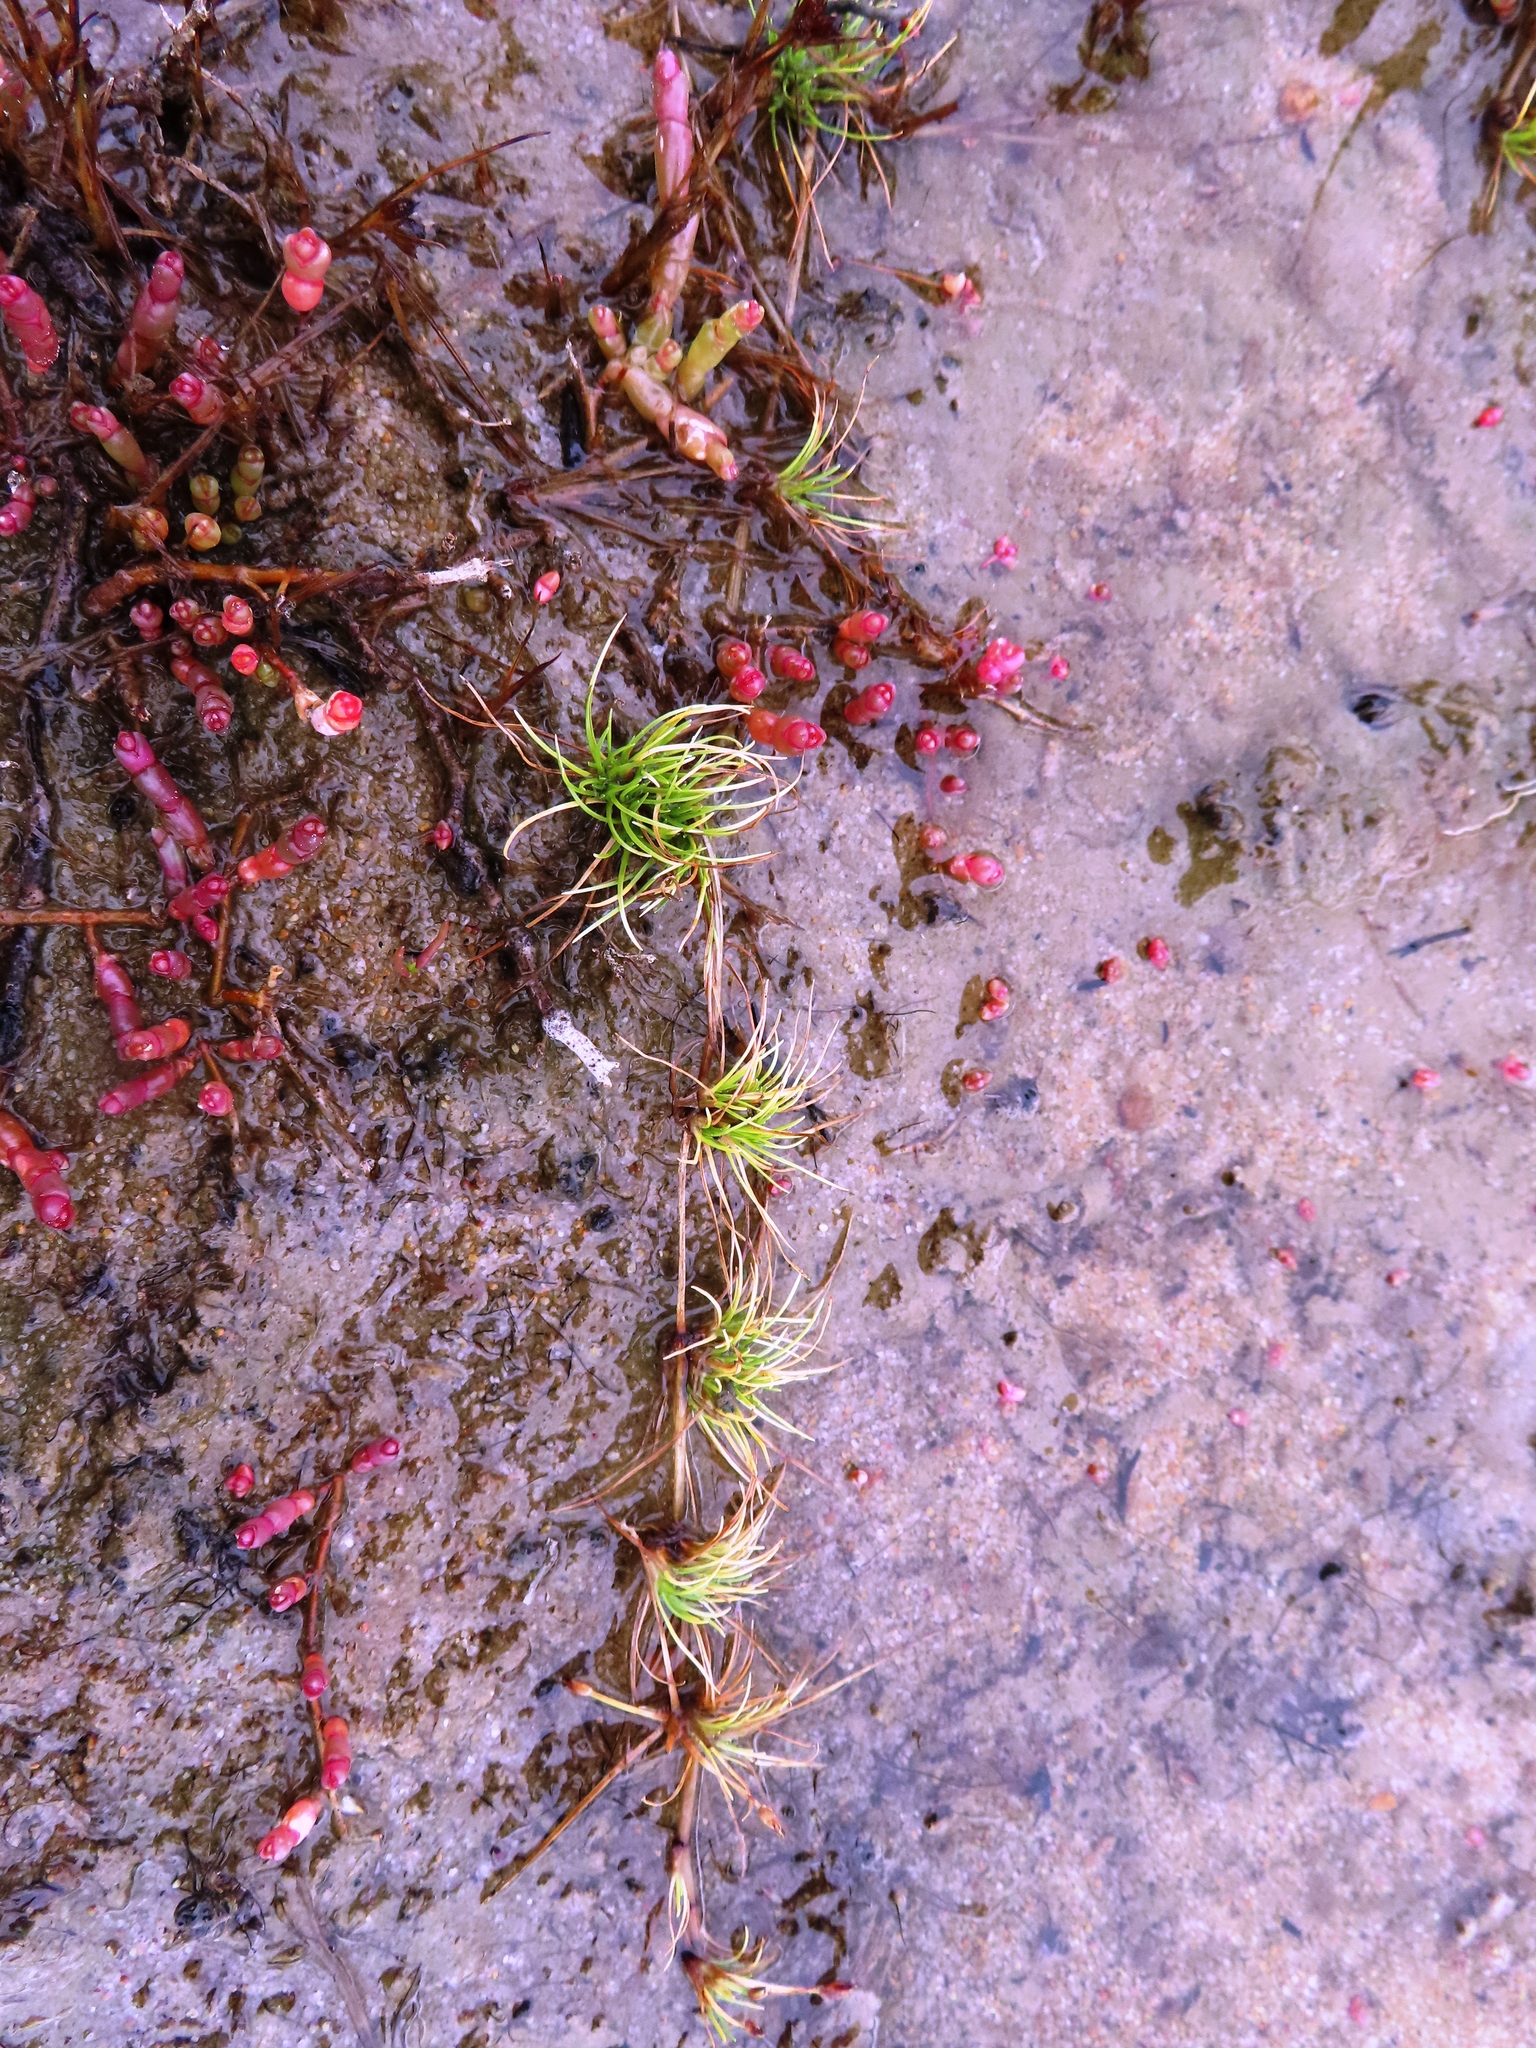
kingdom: Plantae
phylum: Tracheophyta
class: Magnoliopsida
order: Caryophyllales
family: Amaranthaceae
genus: Salicornia
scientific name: Salicornia natalensis
